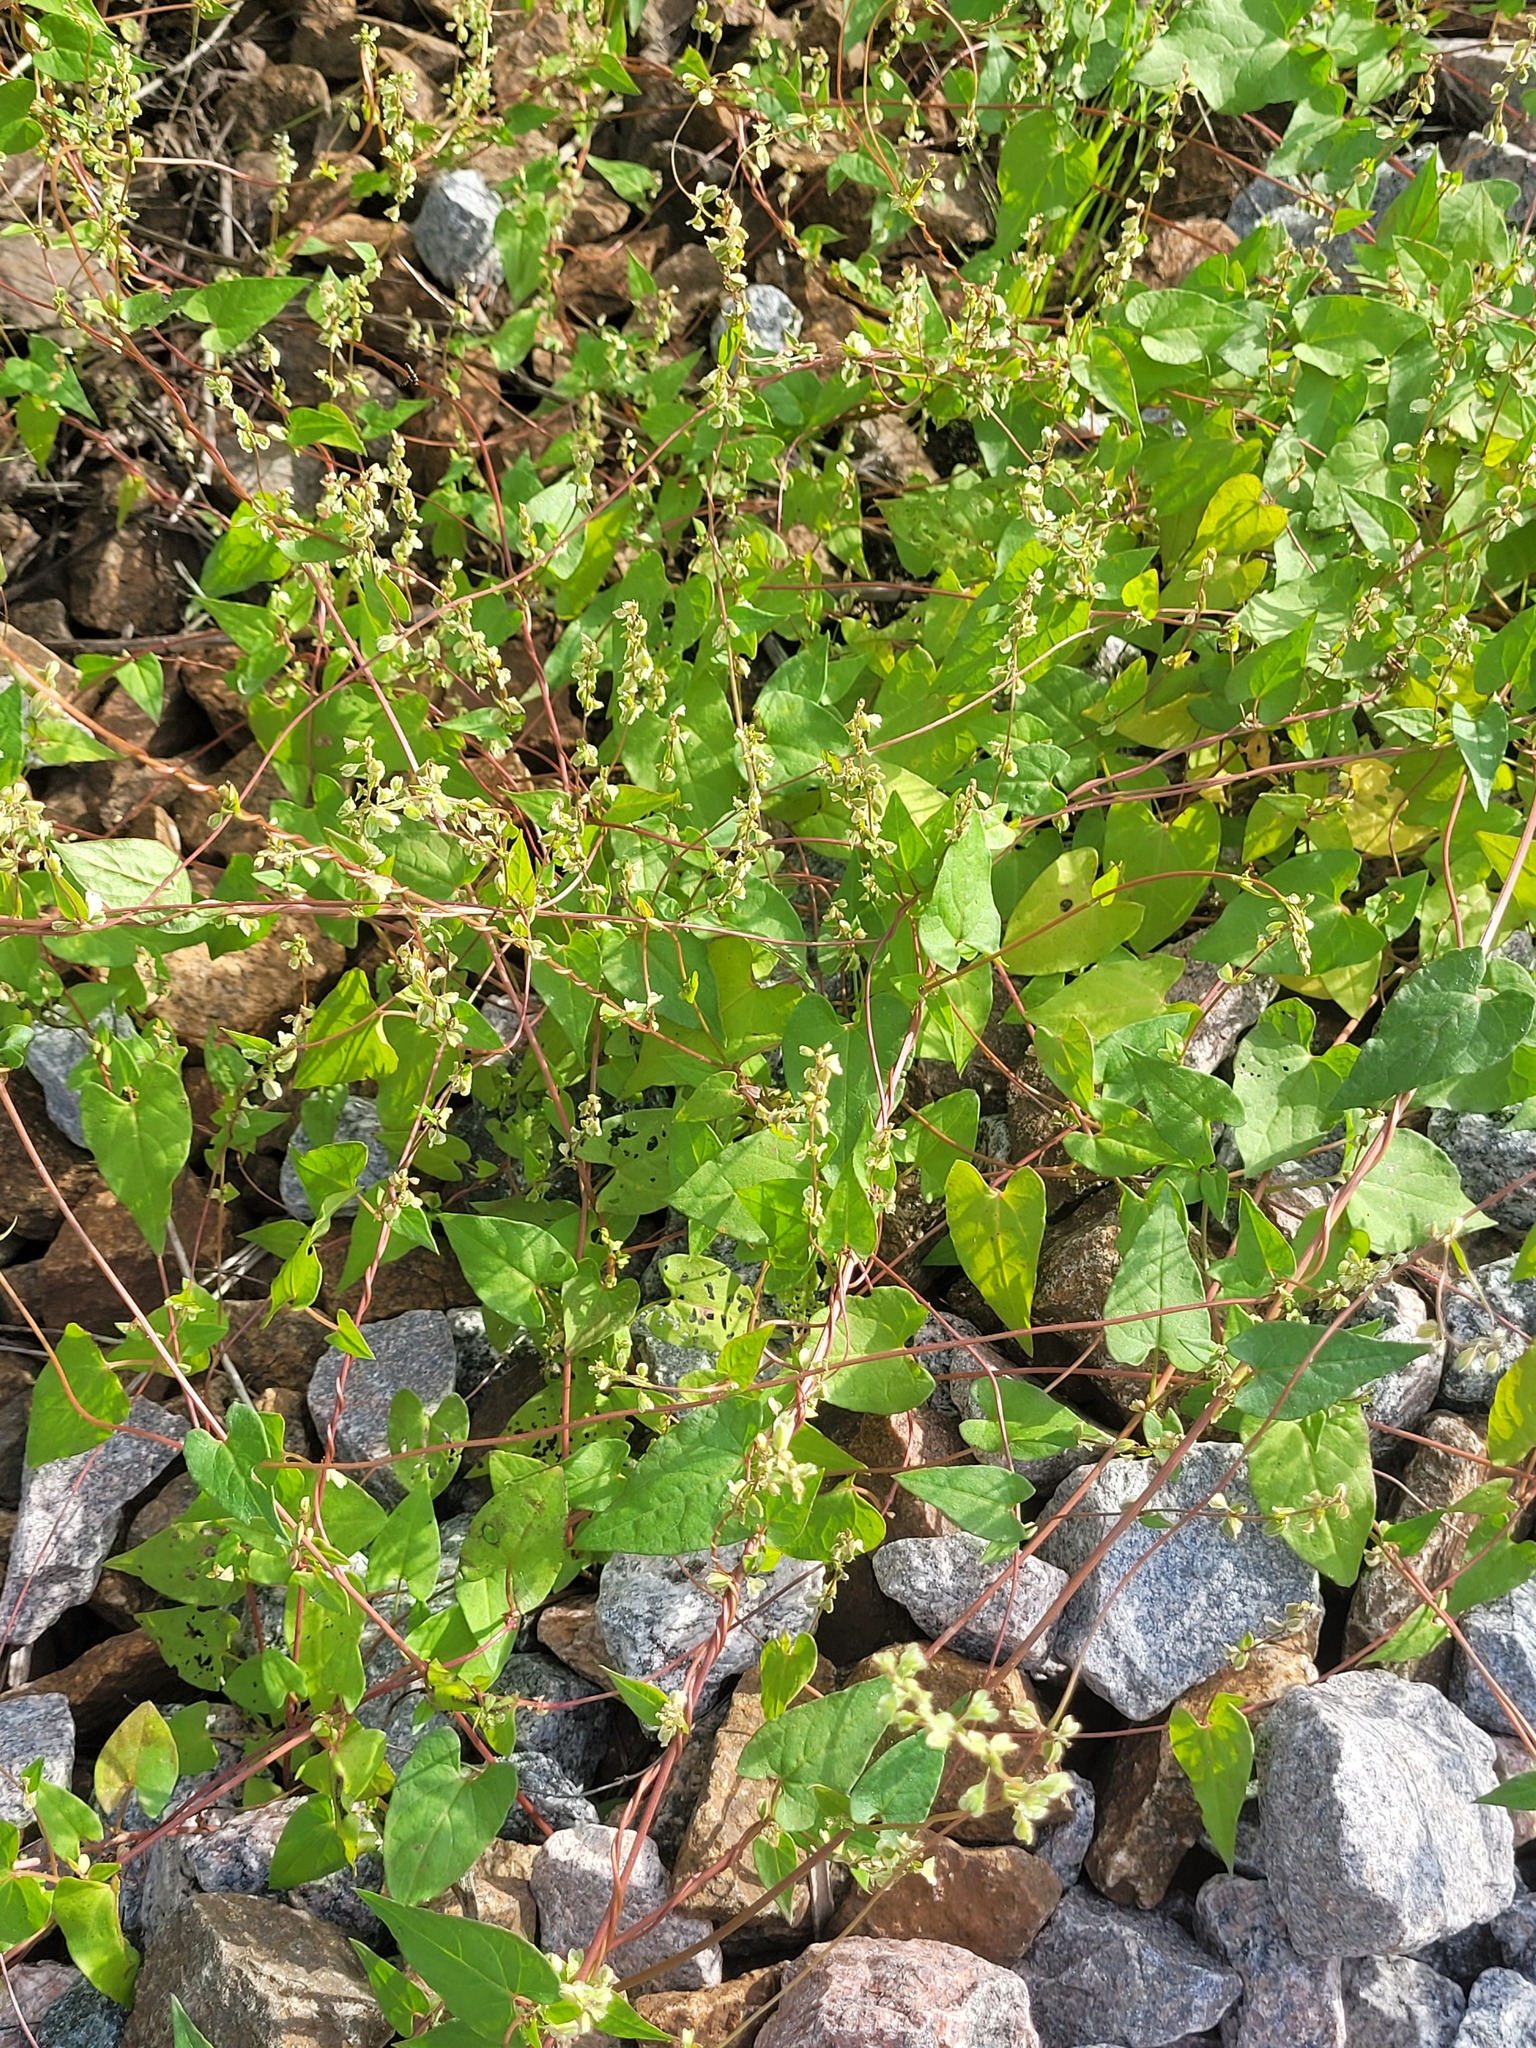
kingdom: Plantae
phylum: Tracheophyta
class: Magnoliopsida
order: Caryophyllales
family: Polygonaceae
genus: Fallopia
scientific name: Fallopia dumetorum
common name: Copse-bindweed
